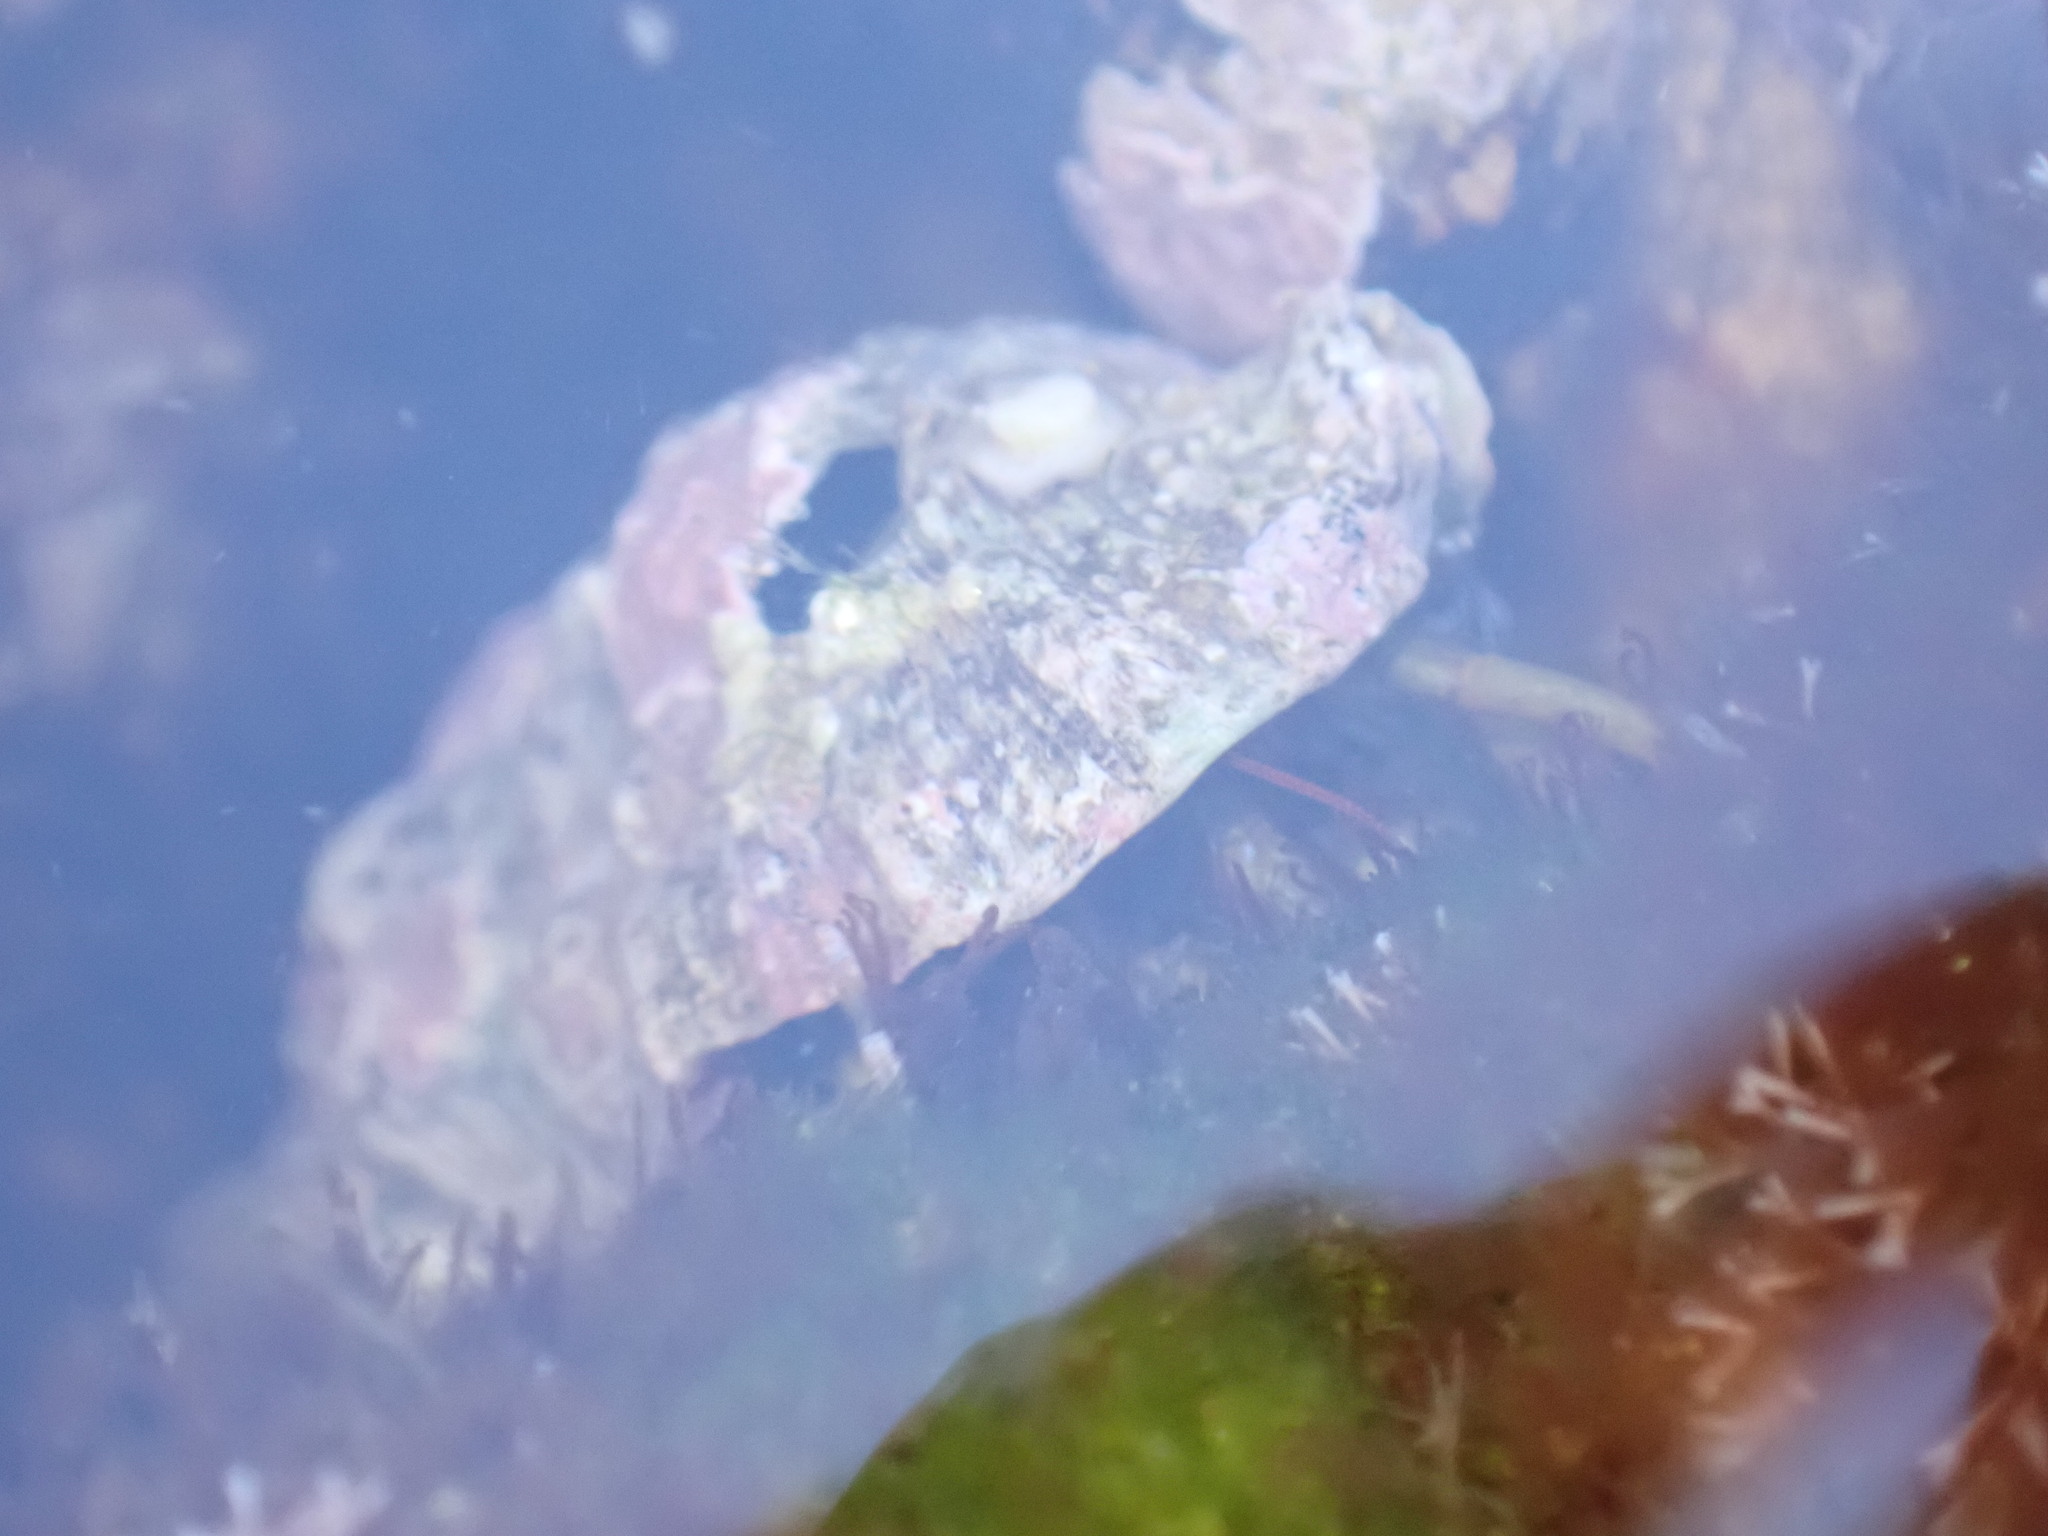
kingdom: Animalia
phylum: Arthropoda
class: Malacostraca
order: Decapoda
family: Diogenidae
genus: Clibanarius
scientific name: Clibanarius erythropus
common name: Hermit crab
